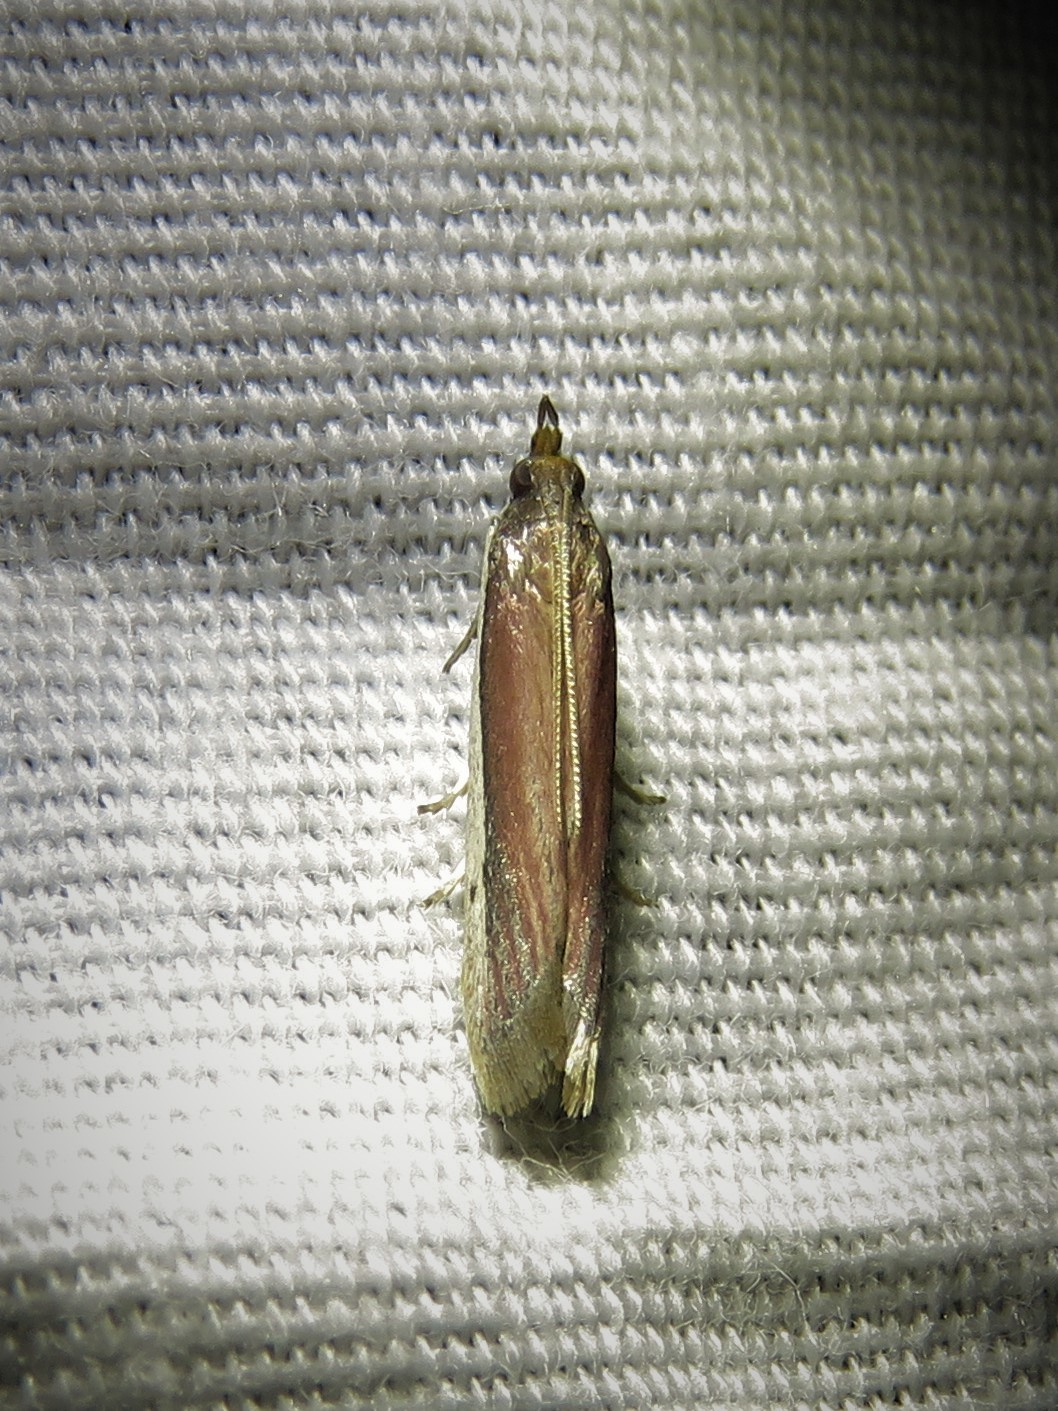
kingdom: Animalia
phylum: Arthropoda
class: Insecta
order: Lepidoptera
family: Pyralidae
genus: Tampa
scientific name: Tampa dimediatella
